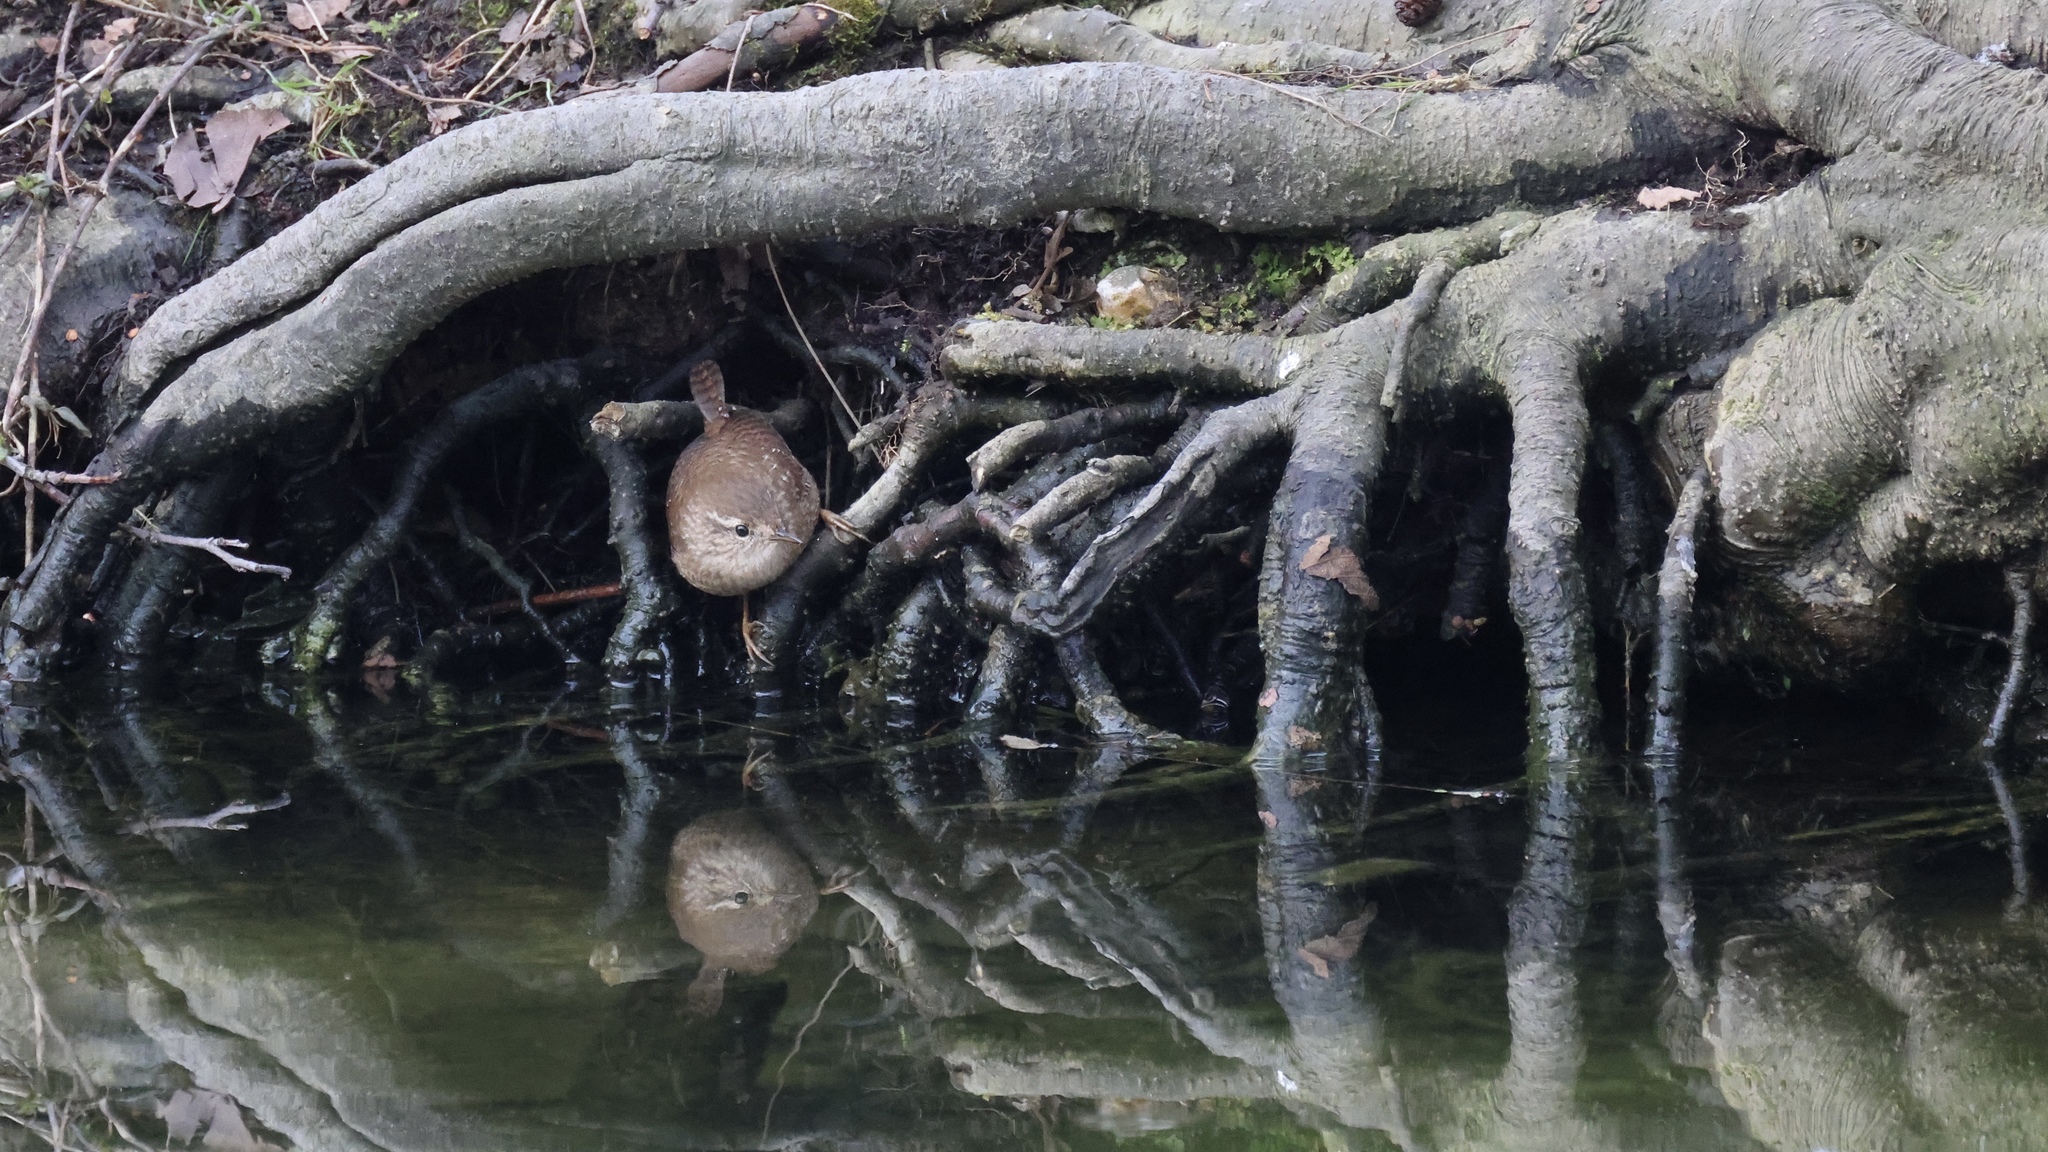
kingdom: Animalia
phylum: Chordata
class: Aves
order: Passeriformes
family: Troglodytidae
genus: Troglodytes
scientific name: Troglodytes hiemalis
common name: Winter wren
